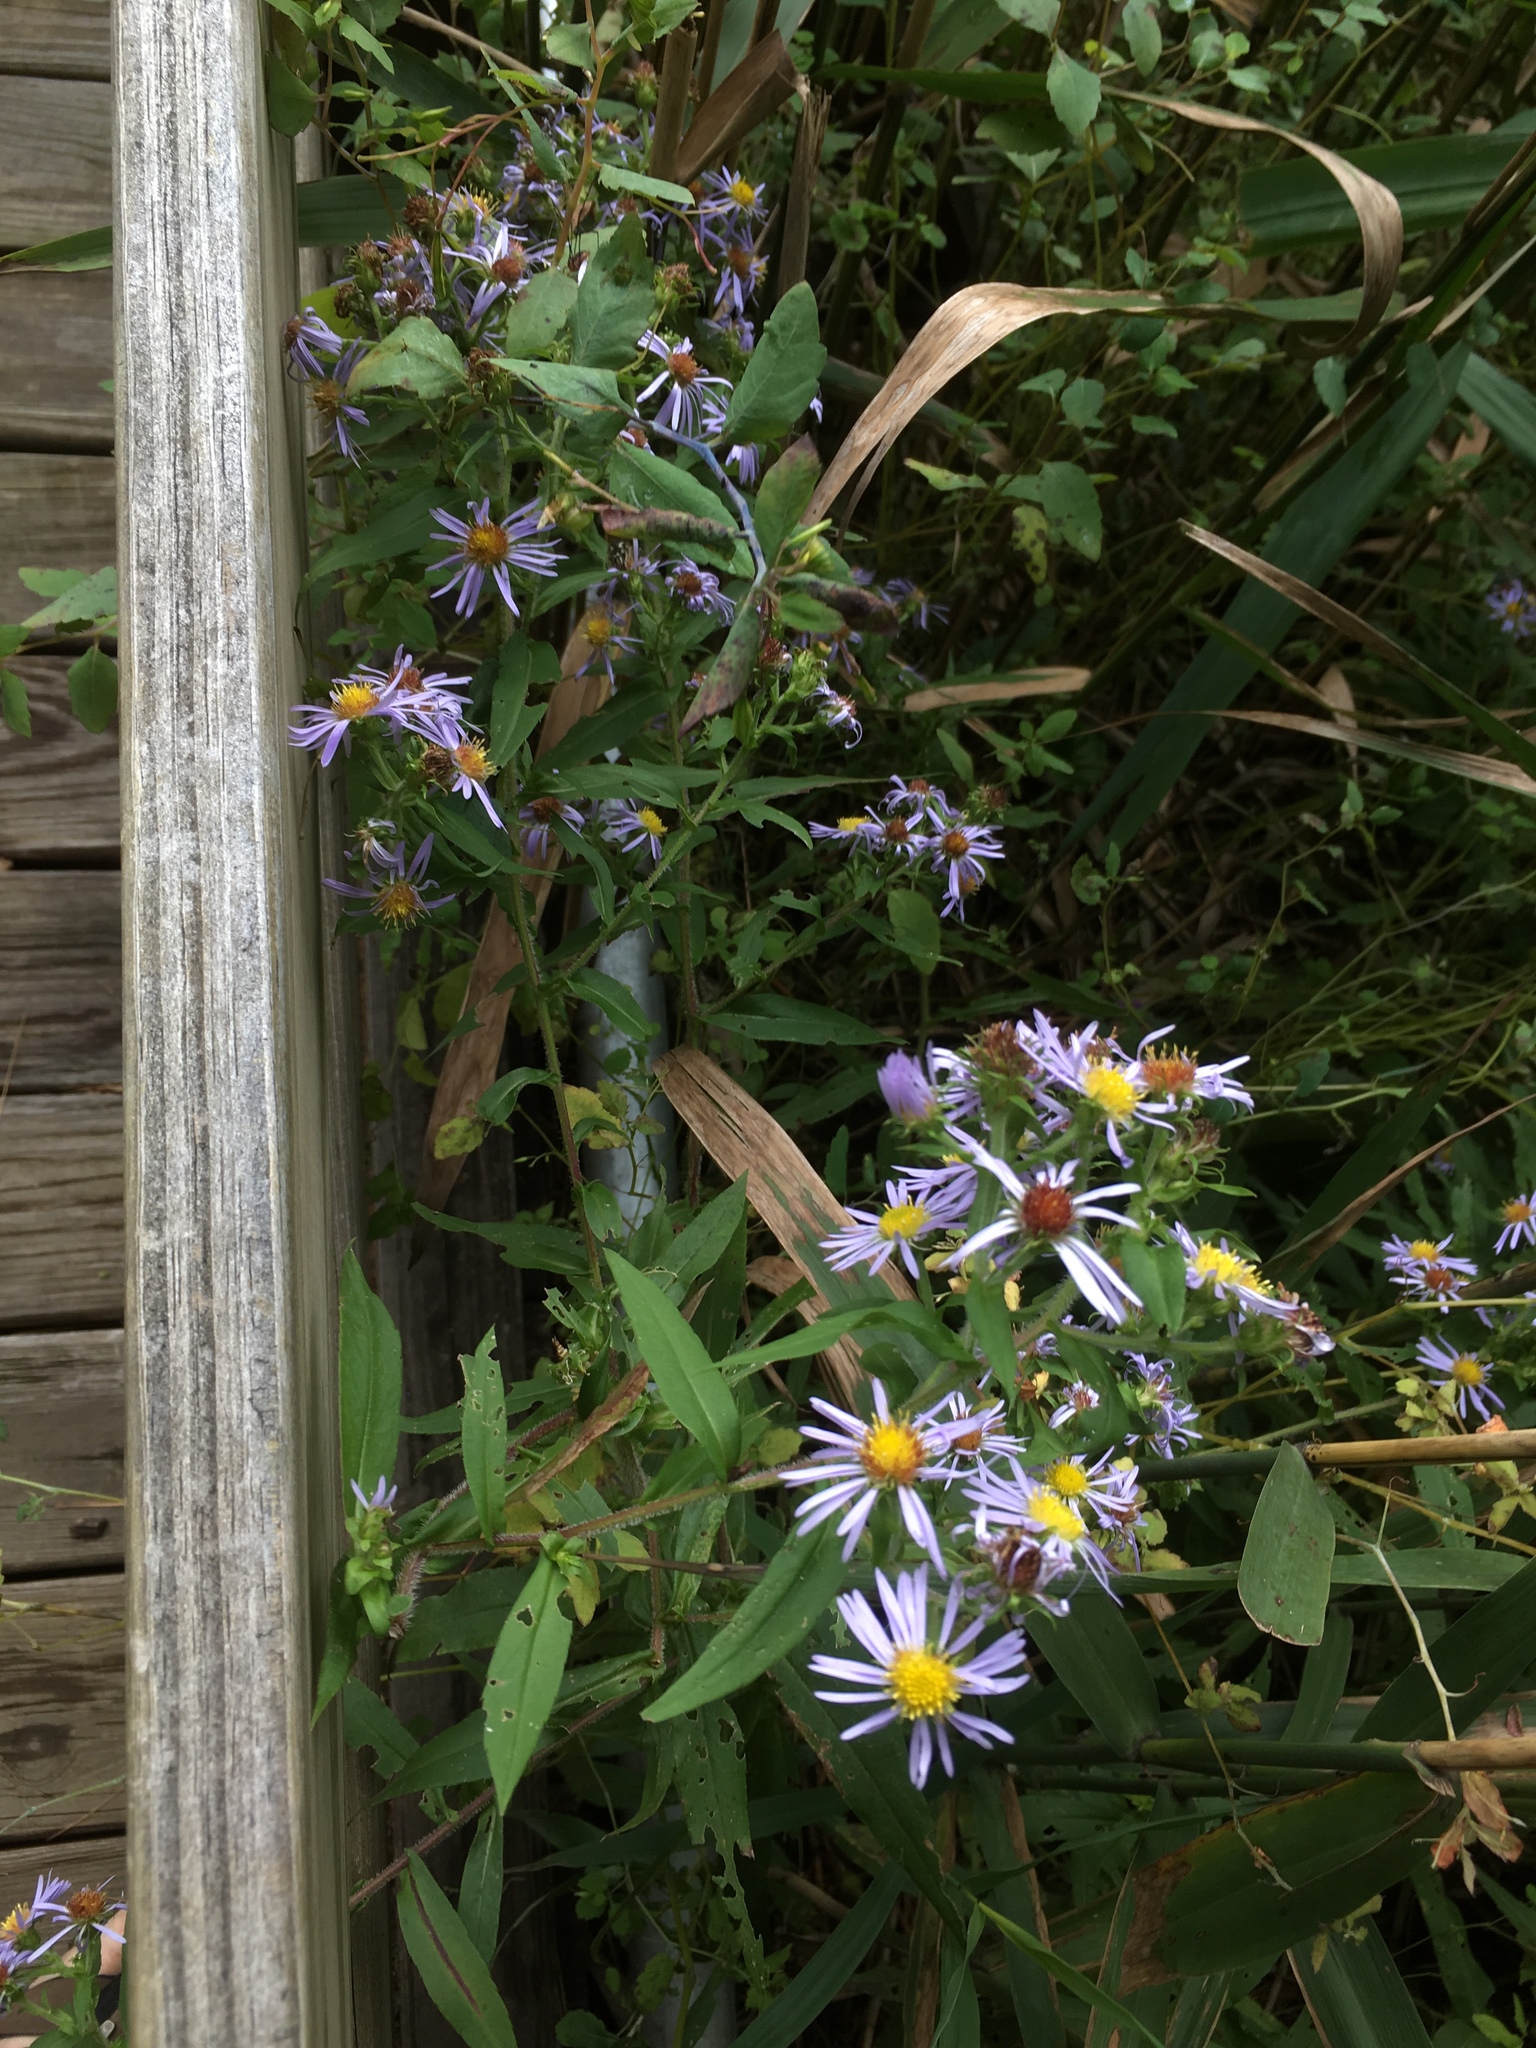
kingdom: Plantae
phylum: Tracheophyta
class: Magnoliopsida
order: Asterales
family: Asteraceae
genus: Symphyotrichum
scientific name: Symphyotrichum puniceum
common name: Bog aster
